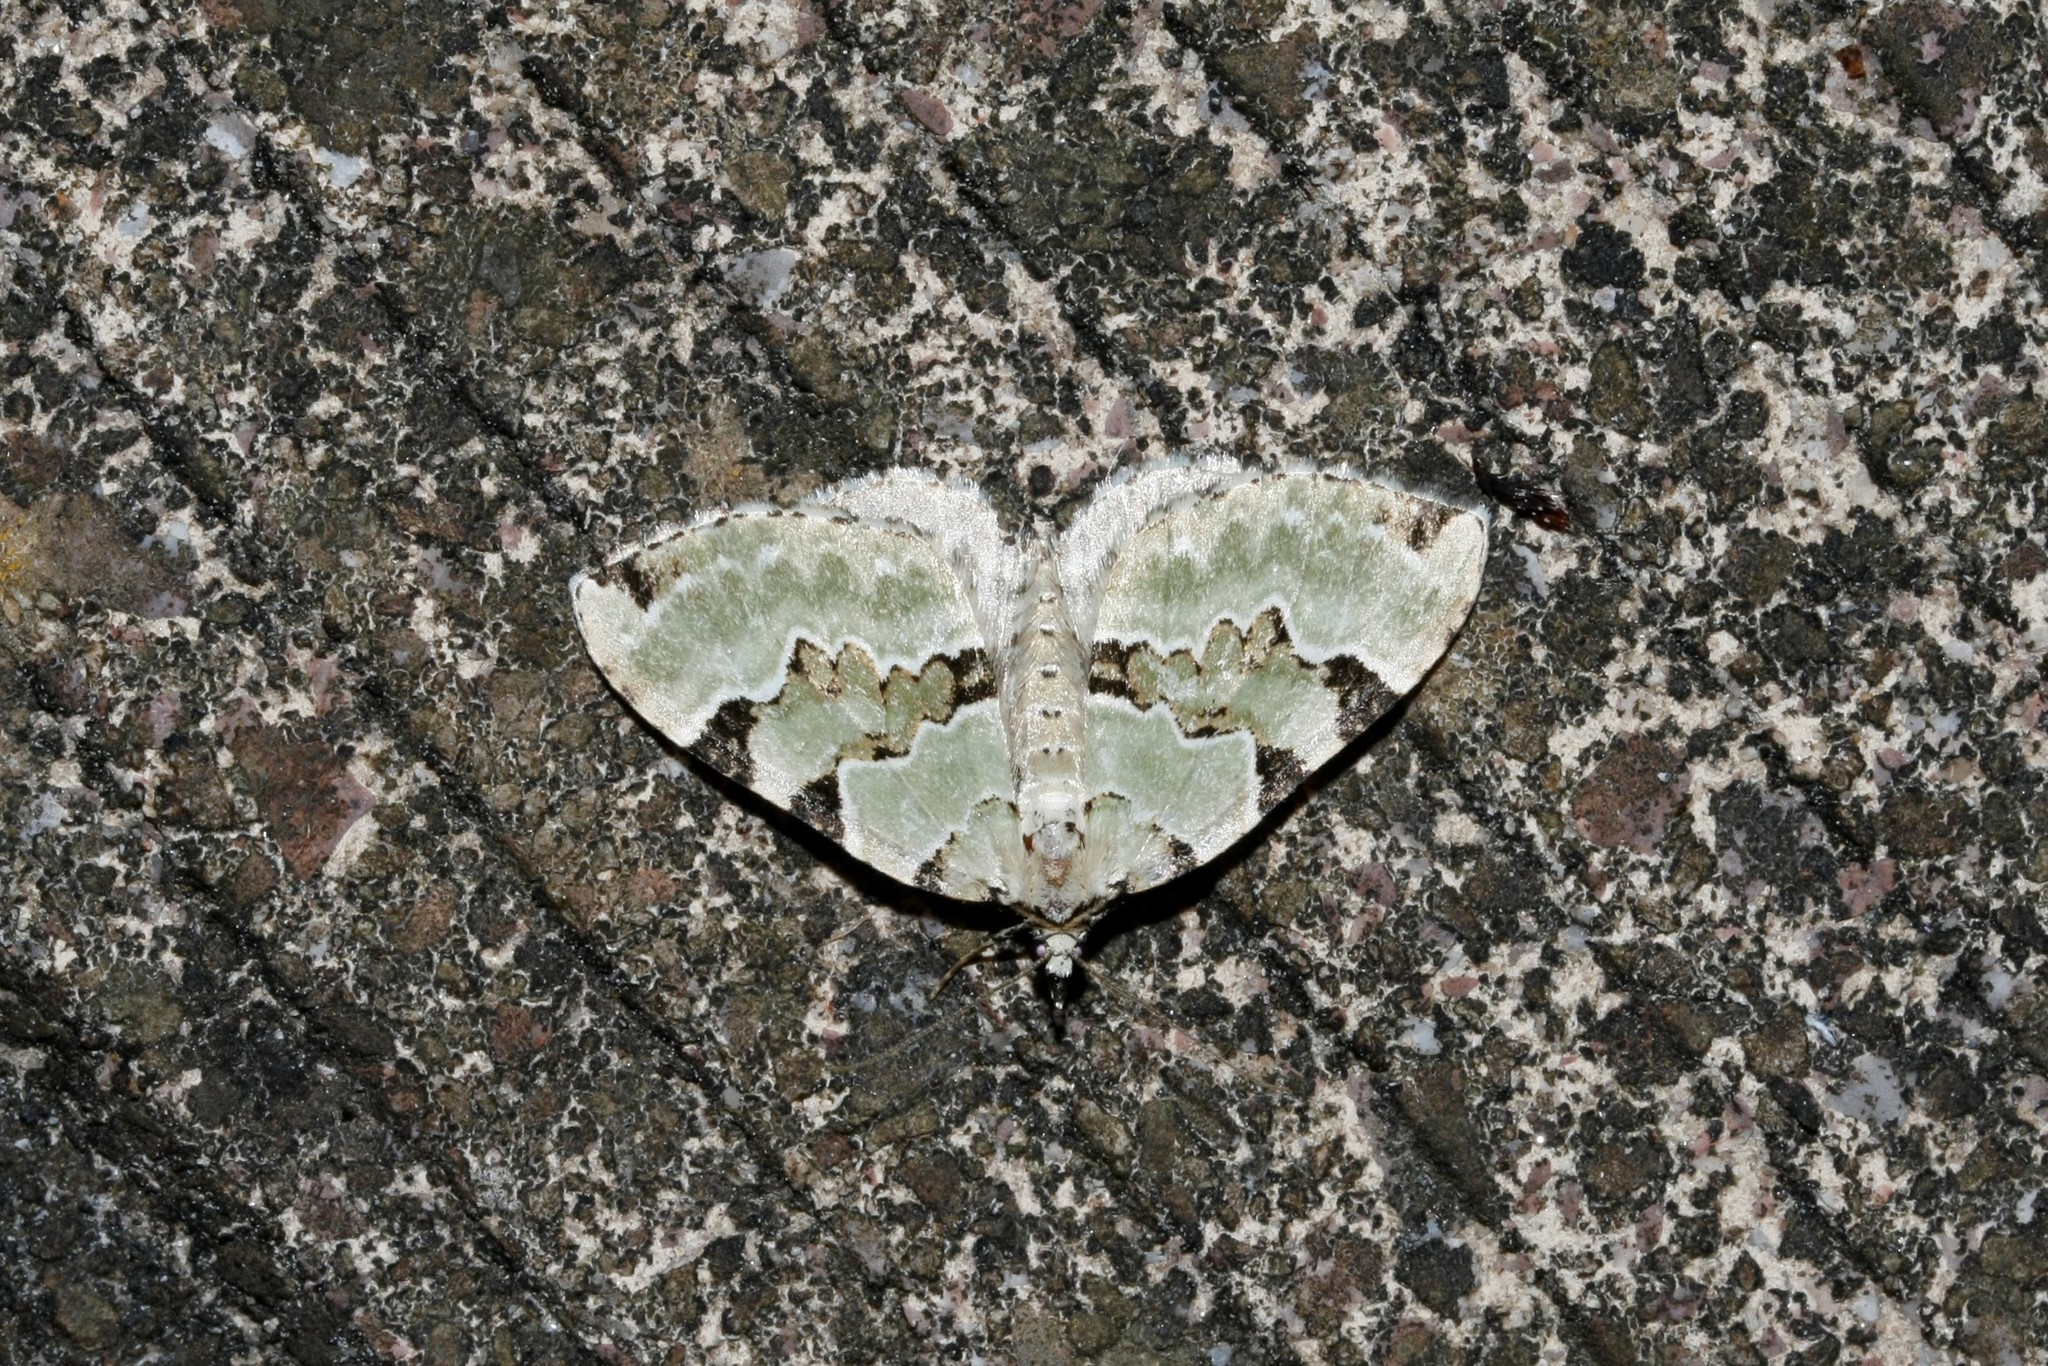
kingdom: Animalia
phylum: Arthropoda
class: Insecta
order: Lepidoptera
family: Geometridae
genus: Colostygia
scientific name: Colostygia pectinataria
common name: Green carpet
